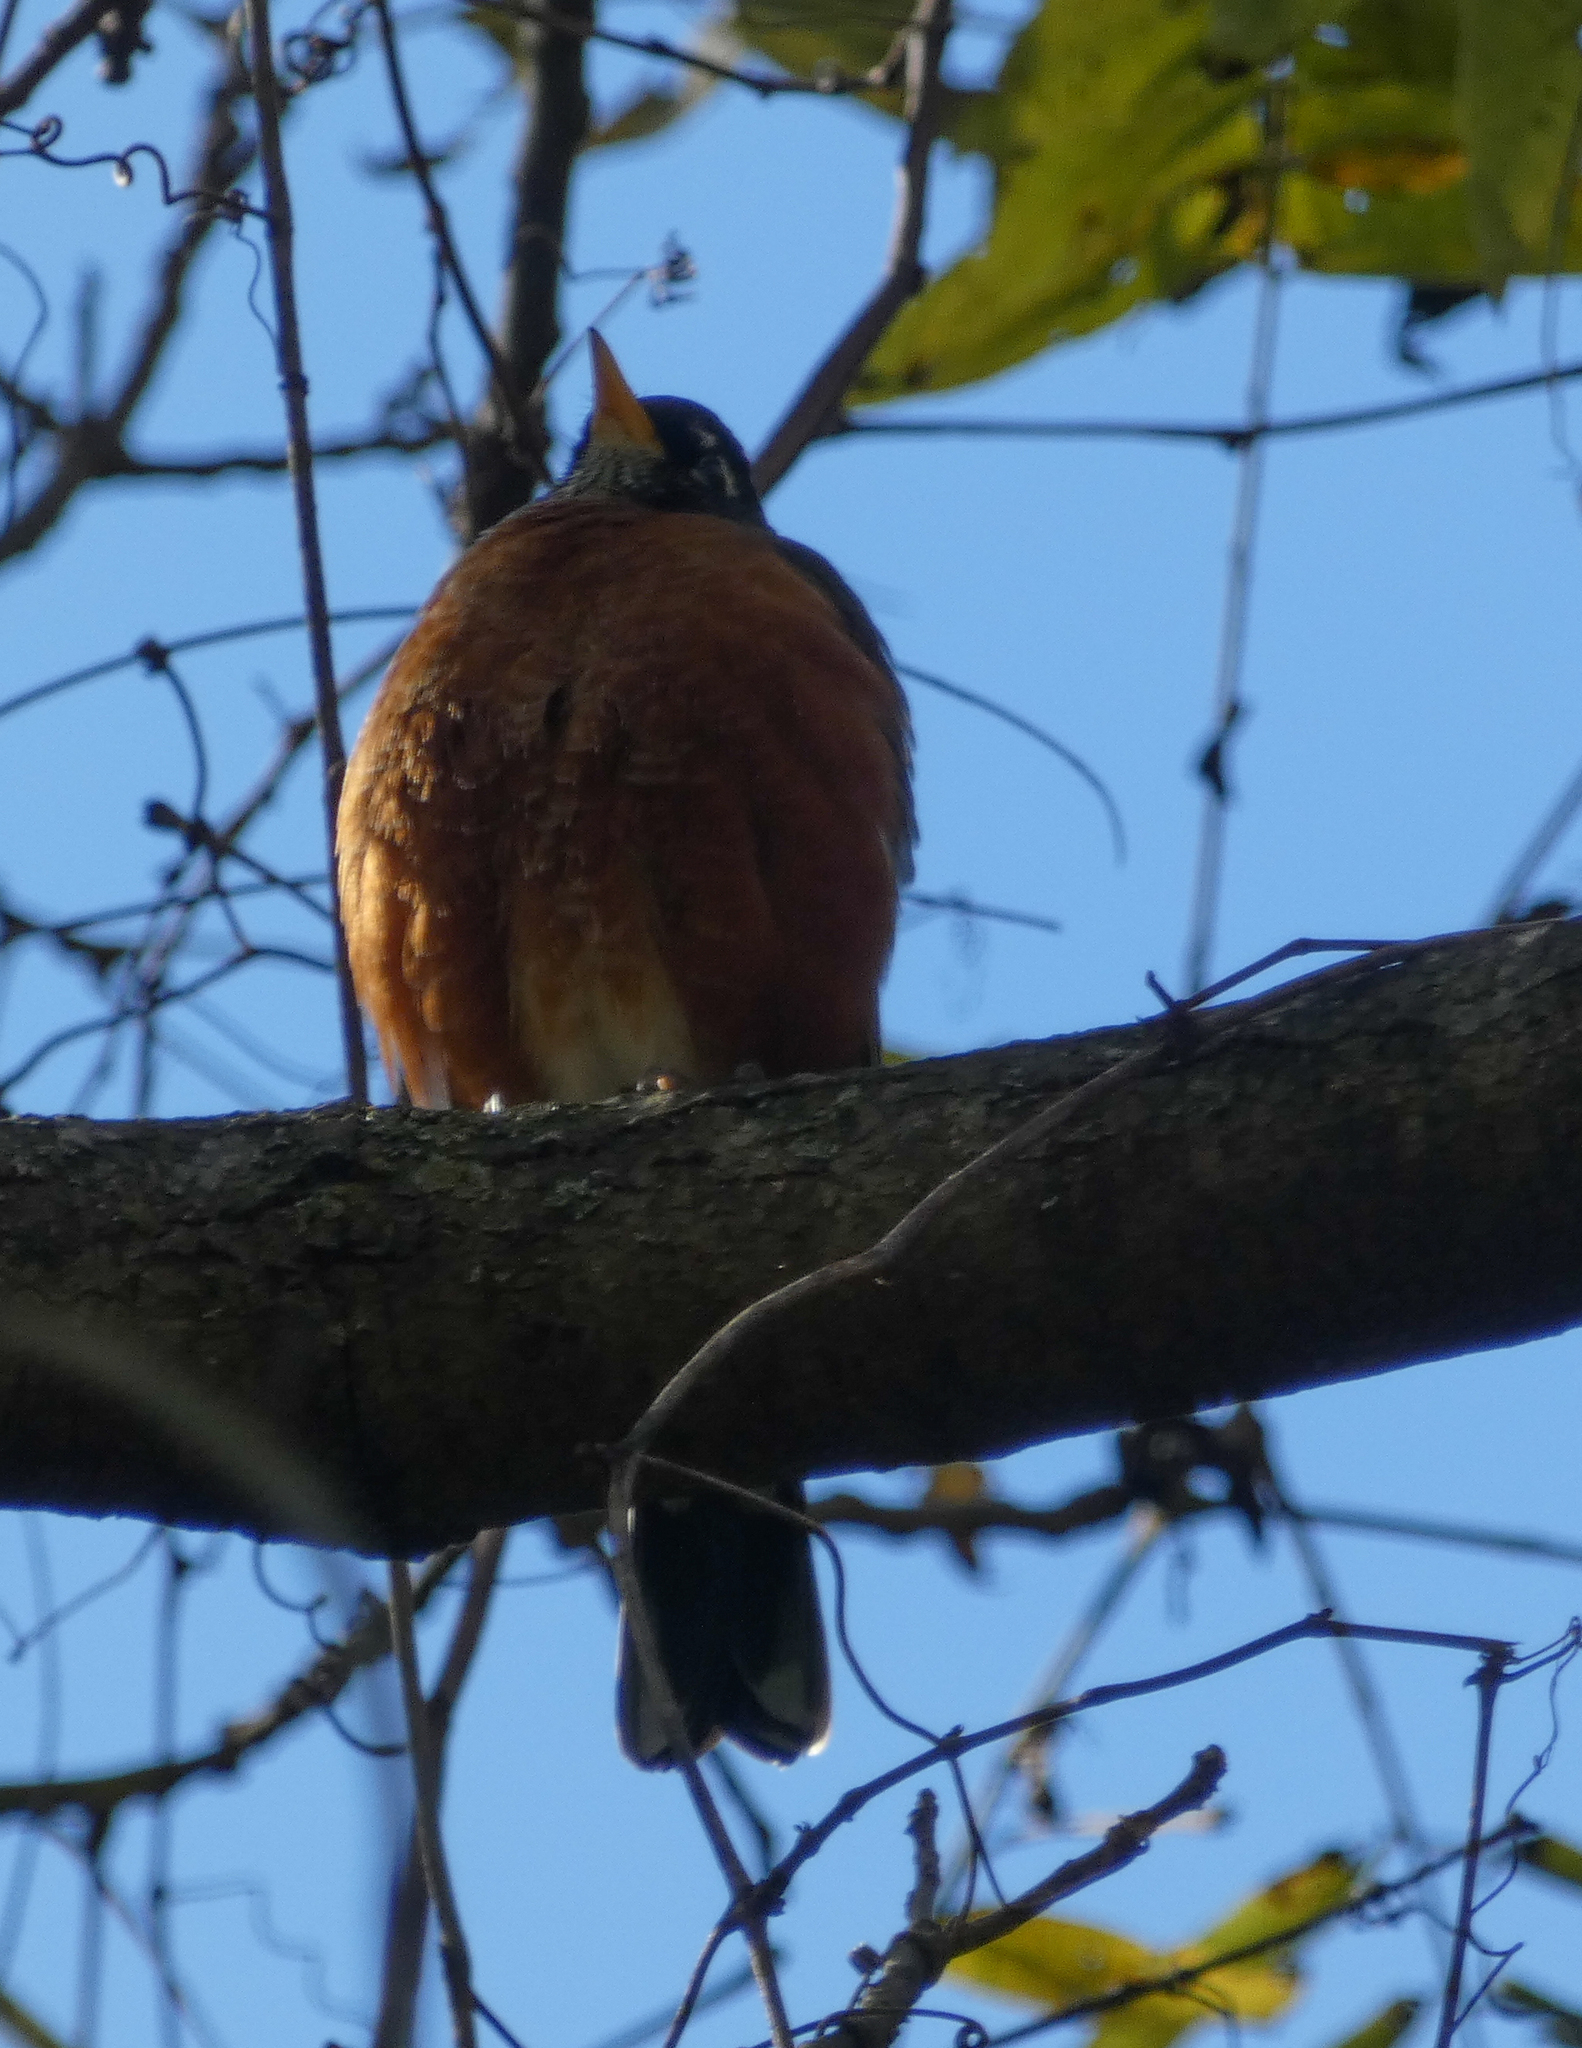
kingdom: Animalia
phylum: Chordata
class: Aves
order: Passeriformes
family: Turdidae
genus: Turdus
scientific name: Turdus migratorius
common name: American robin
